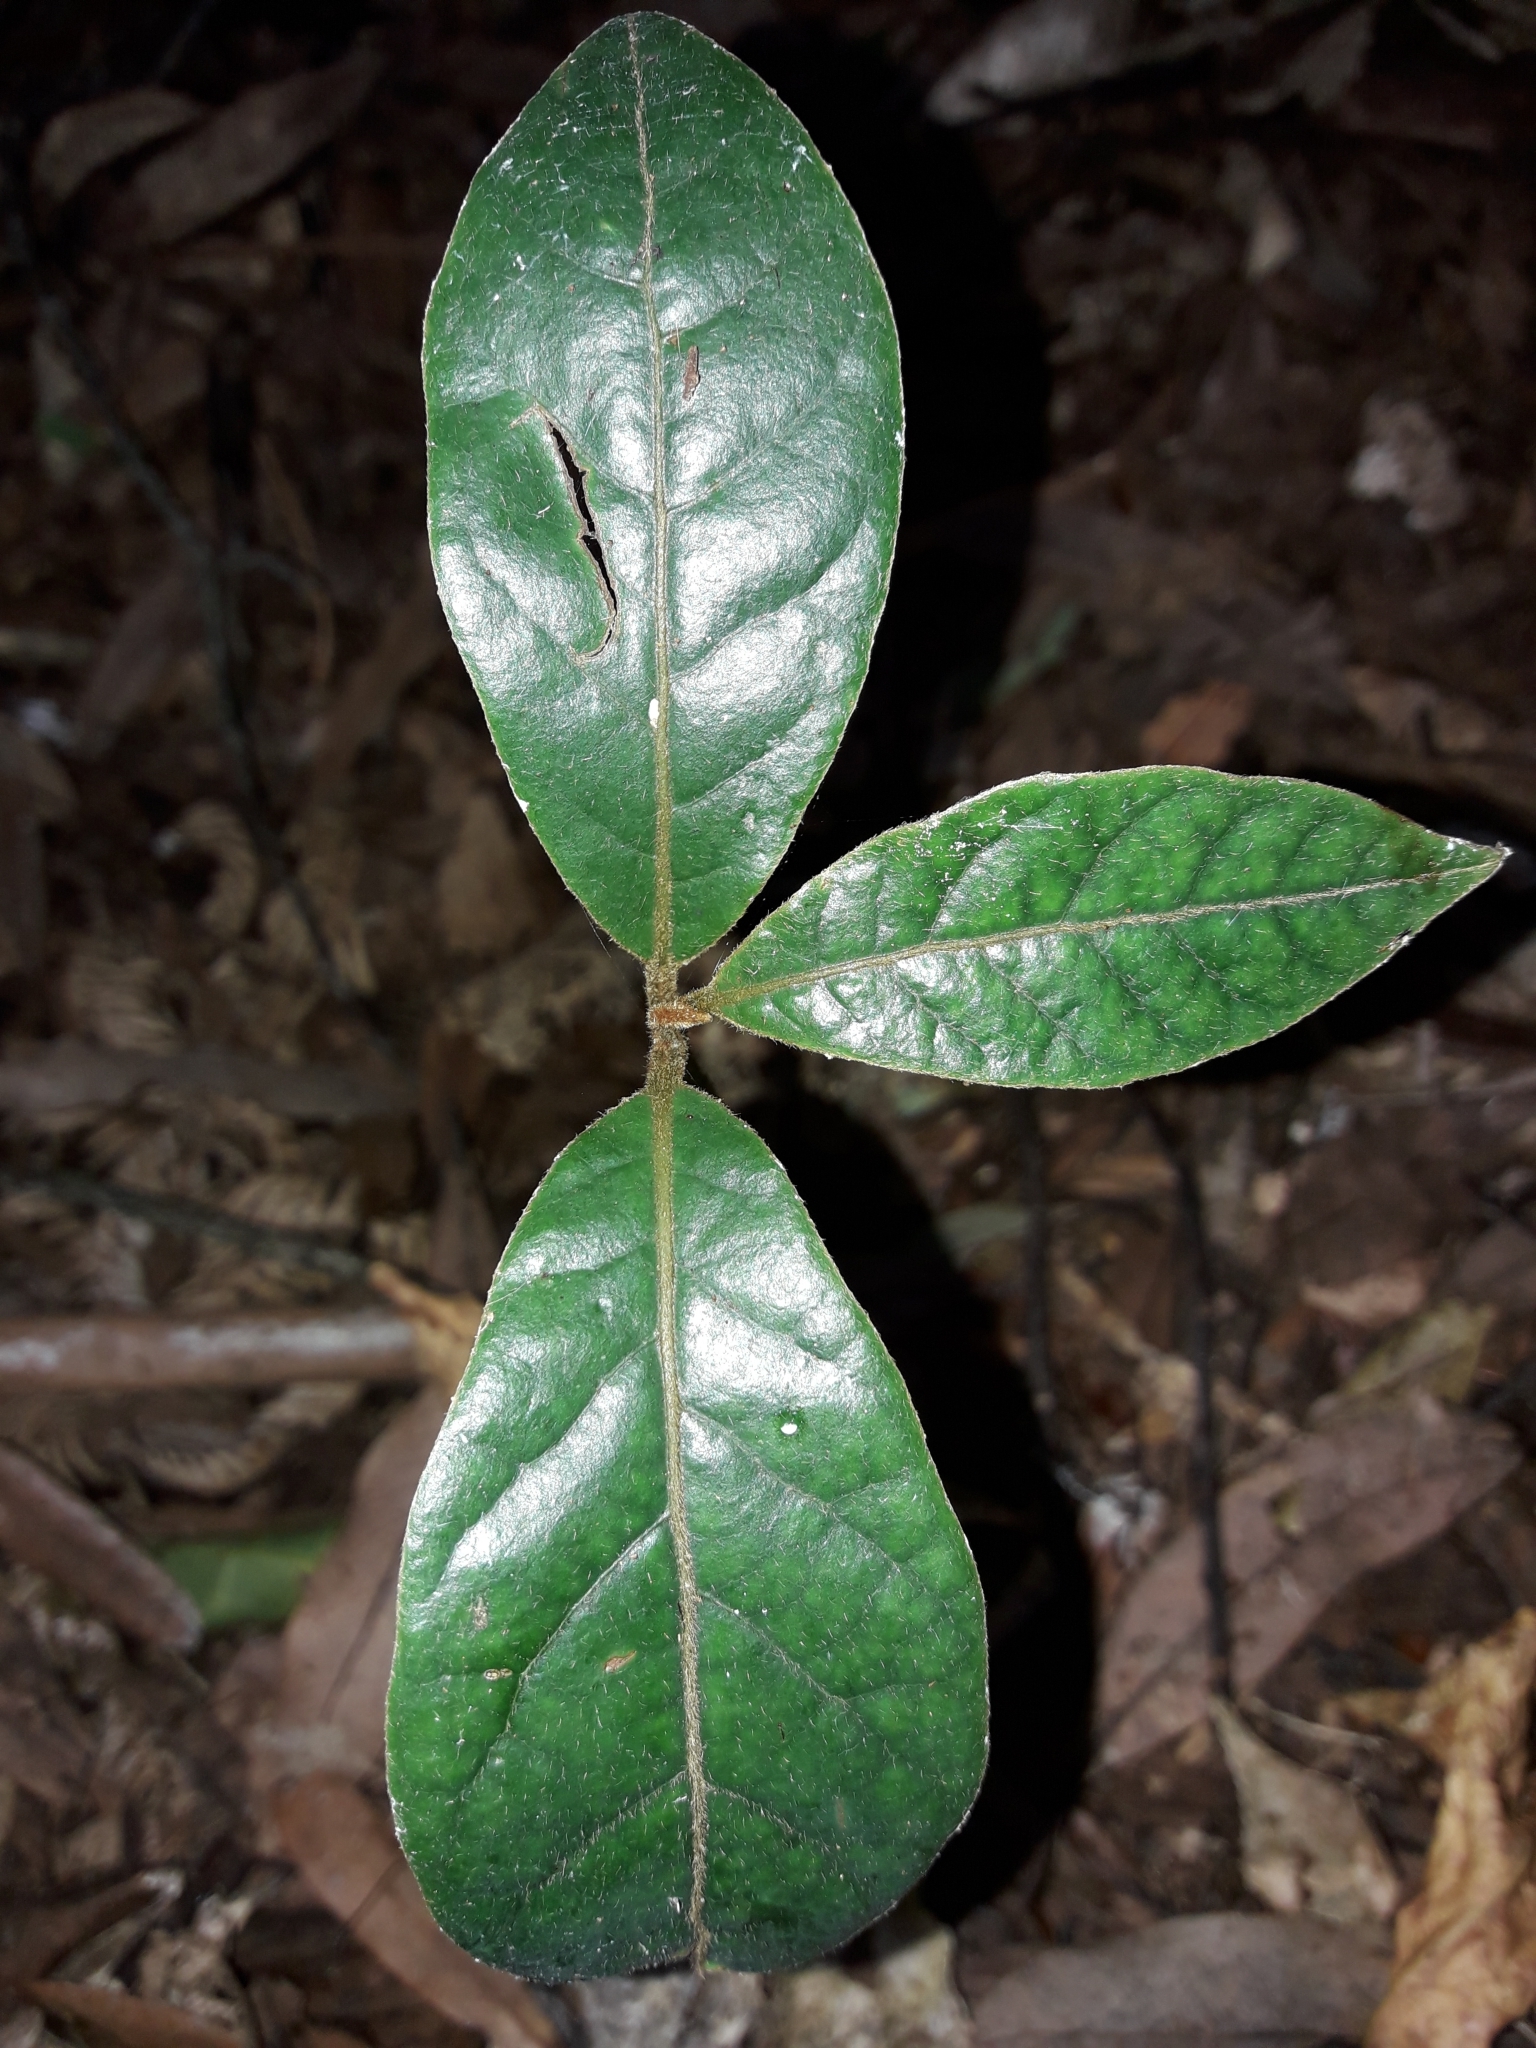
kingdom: Plantae
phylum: Tracheophyta
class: Magnoliopsida
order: Laurales
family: Lauraceae
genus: Beilschmiedia
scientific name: Beilschmiedia tarairi
